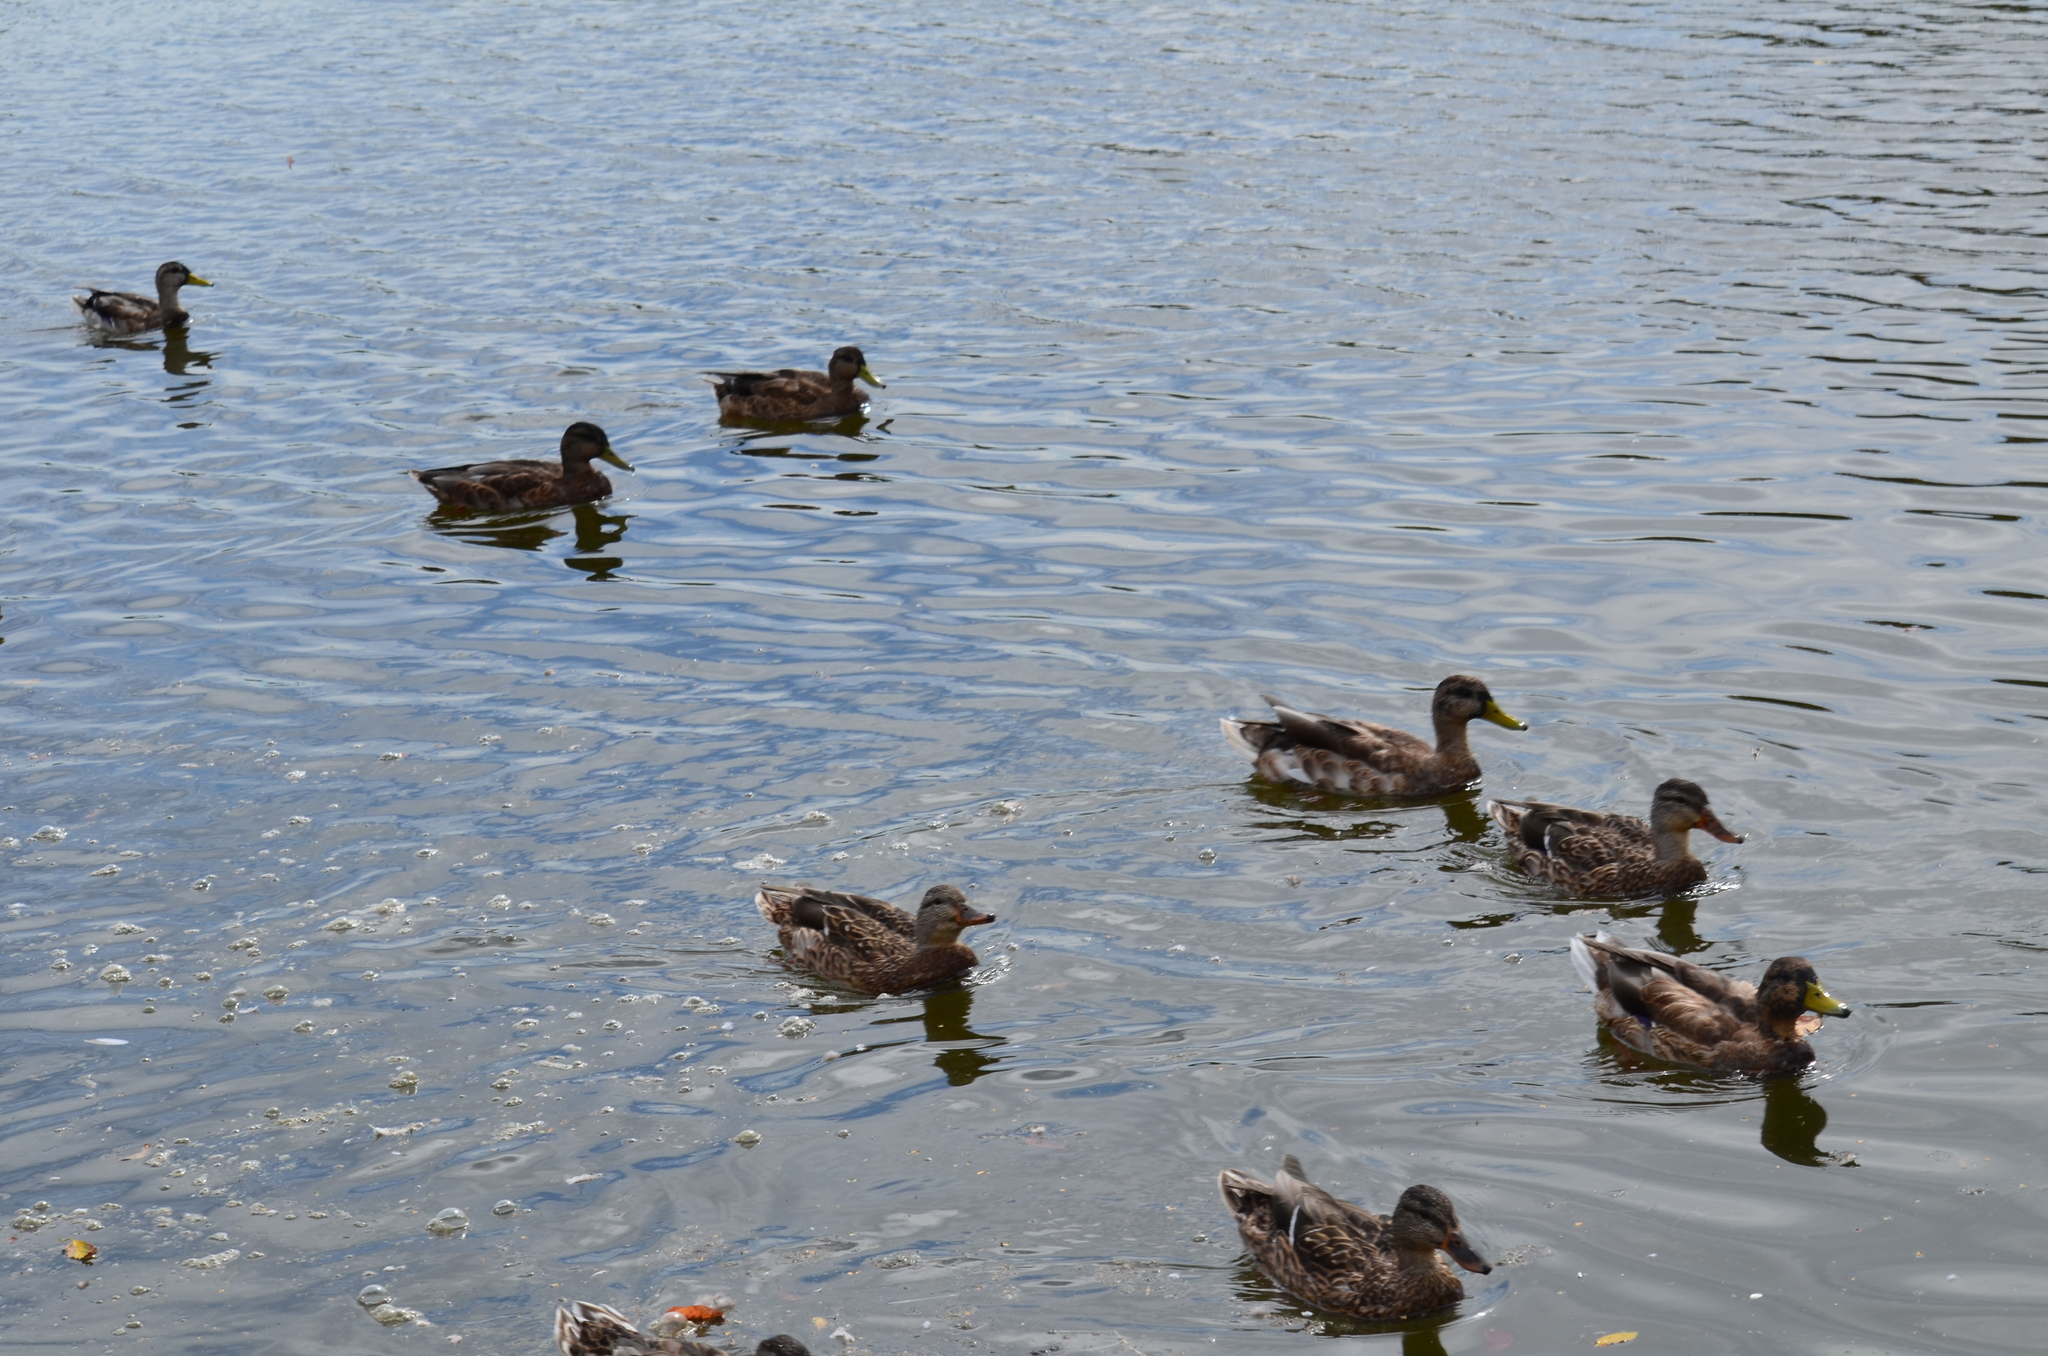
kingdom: Animalia
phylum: Chordata
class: Aves
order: Anseriformes
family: Anatidae
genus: Anas
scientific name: Anas platyrhynchos
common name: Mallard
